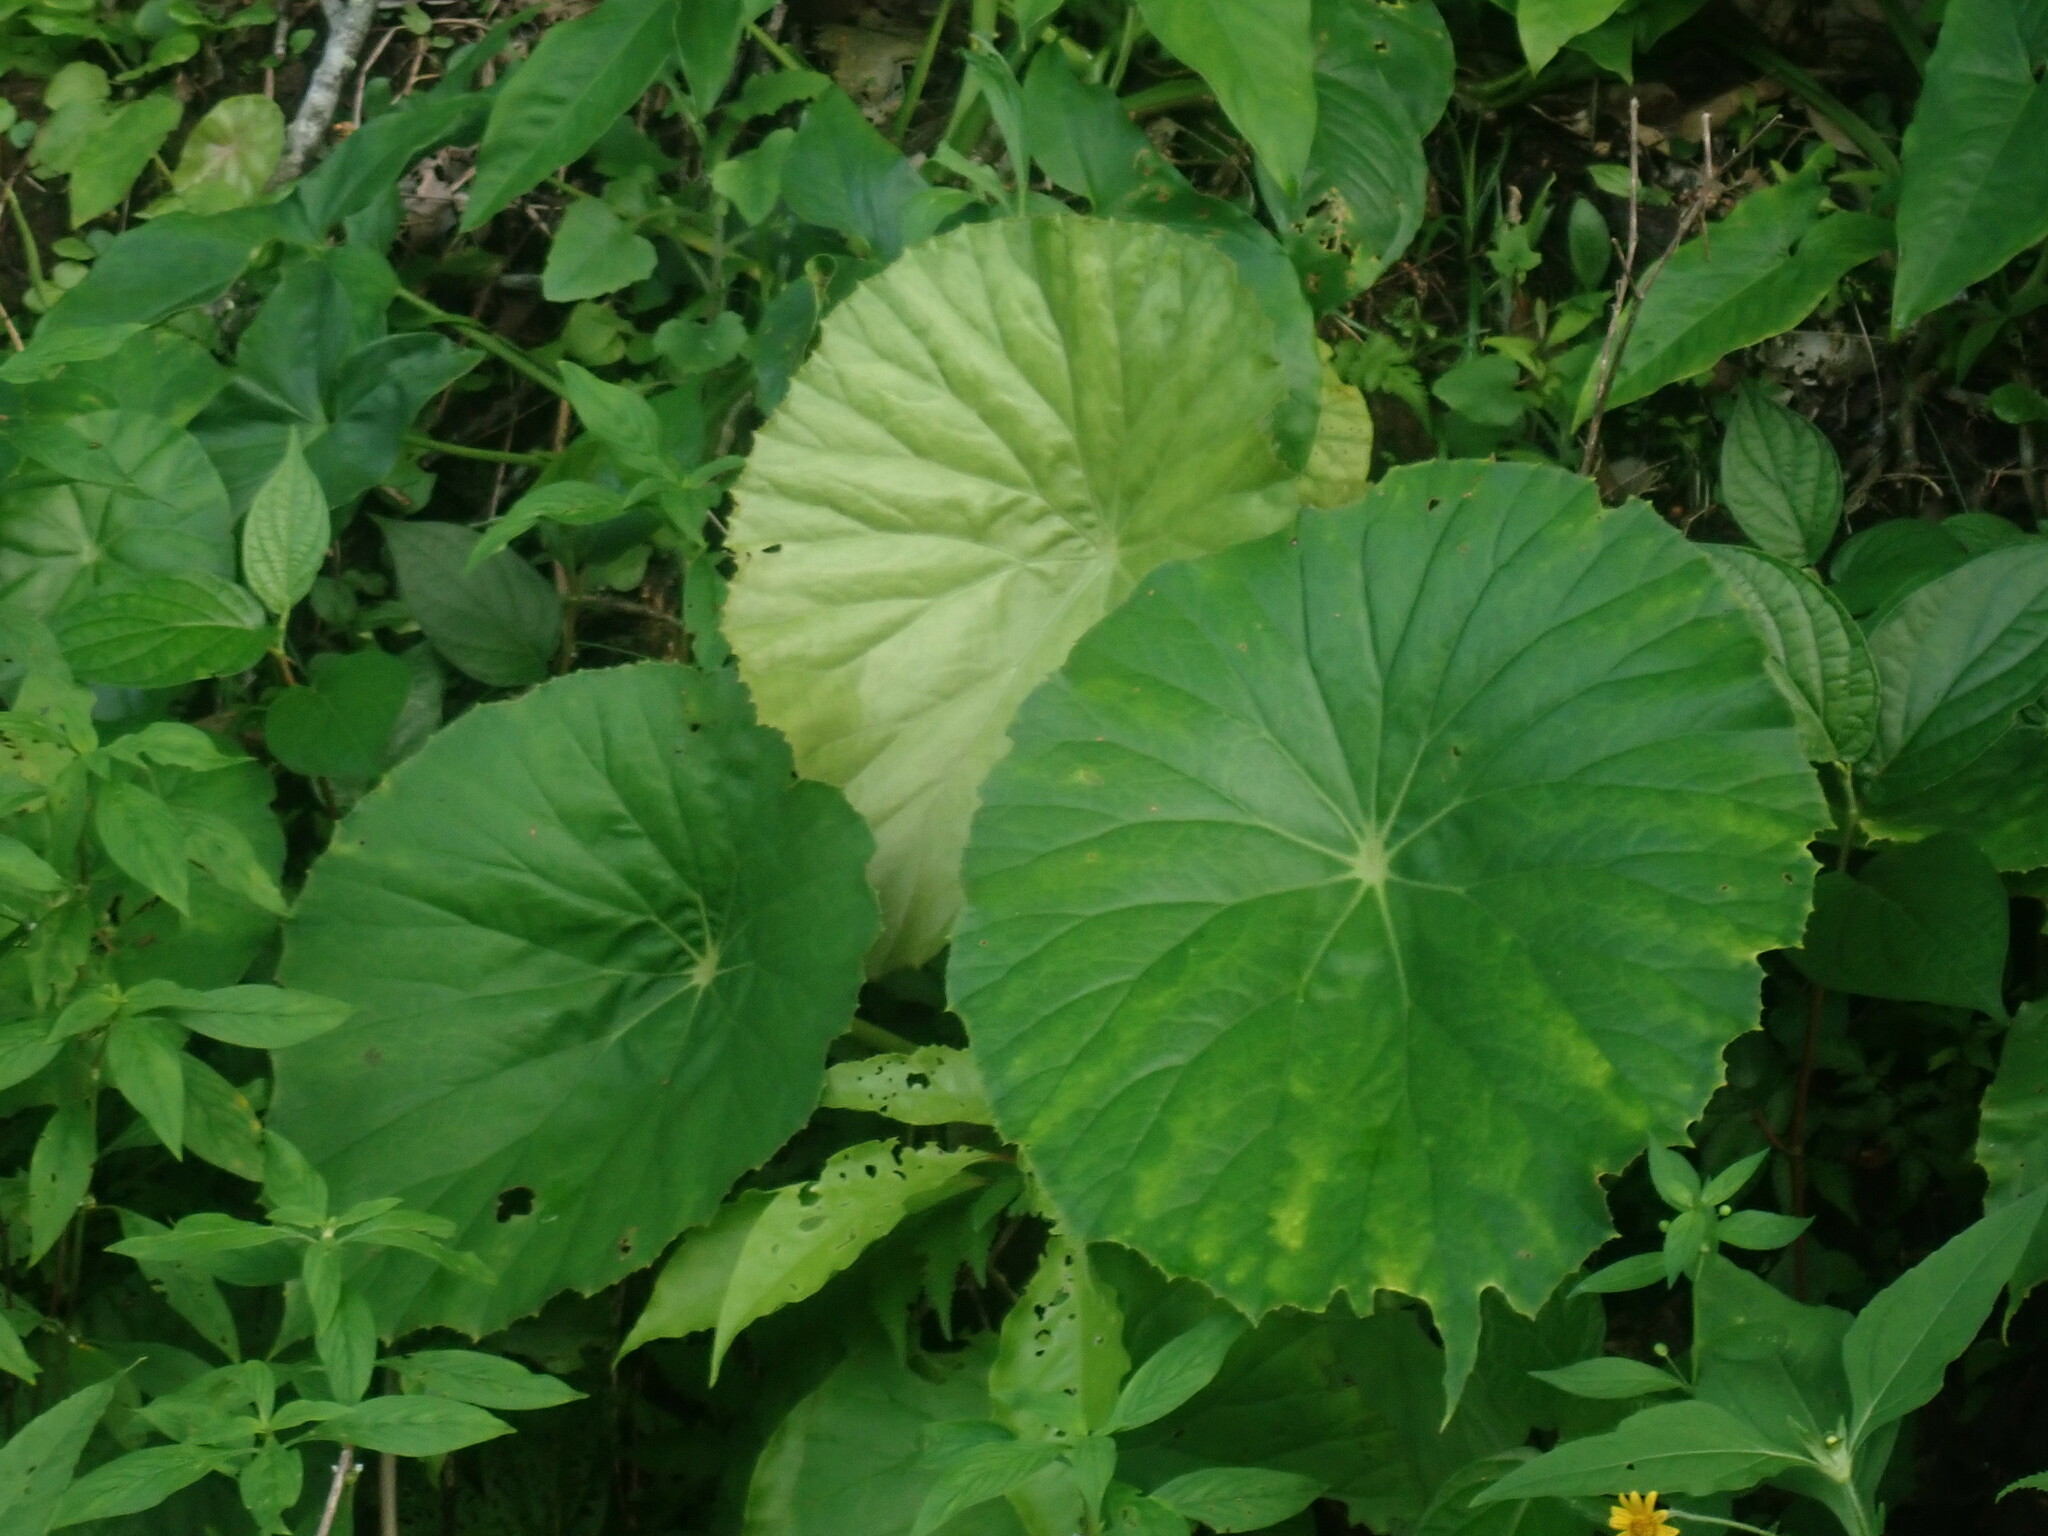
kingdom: Plantae
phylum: Tracheophyta
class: Magnoliopsida
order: Cucurbitales
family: Begoniaceae
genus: Begonia
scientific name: Begonia nelumbiifolia
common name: Lilypad begonia
